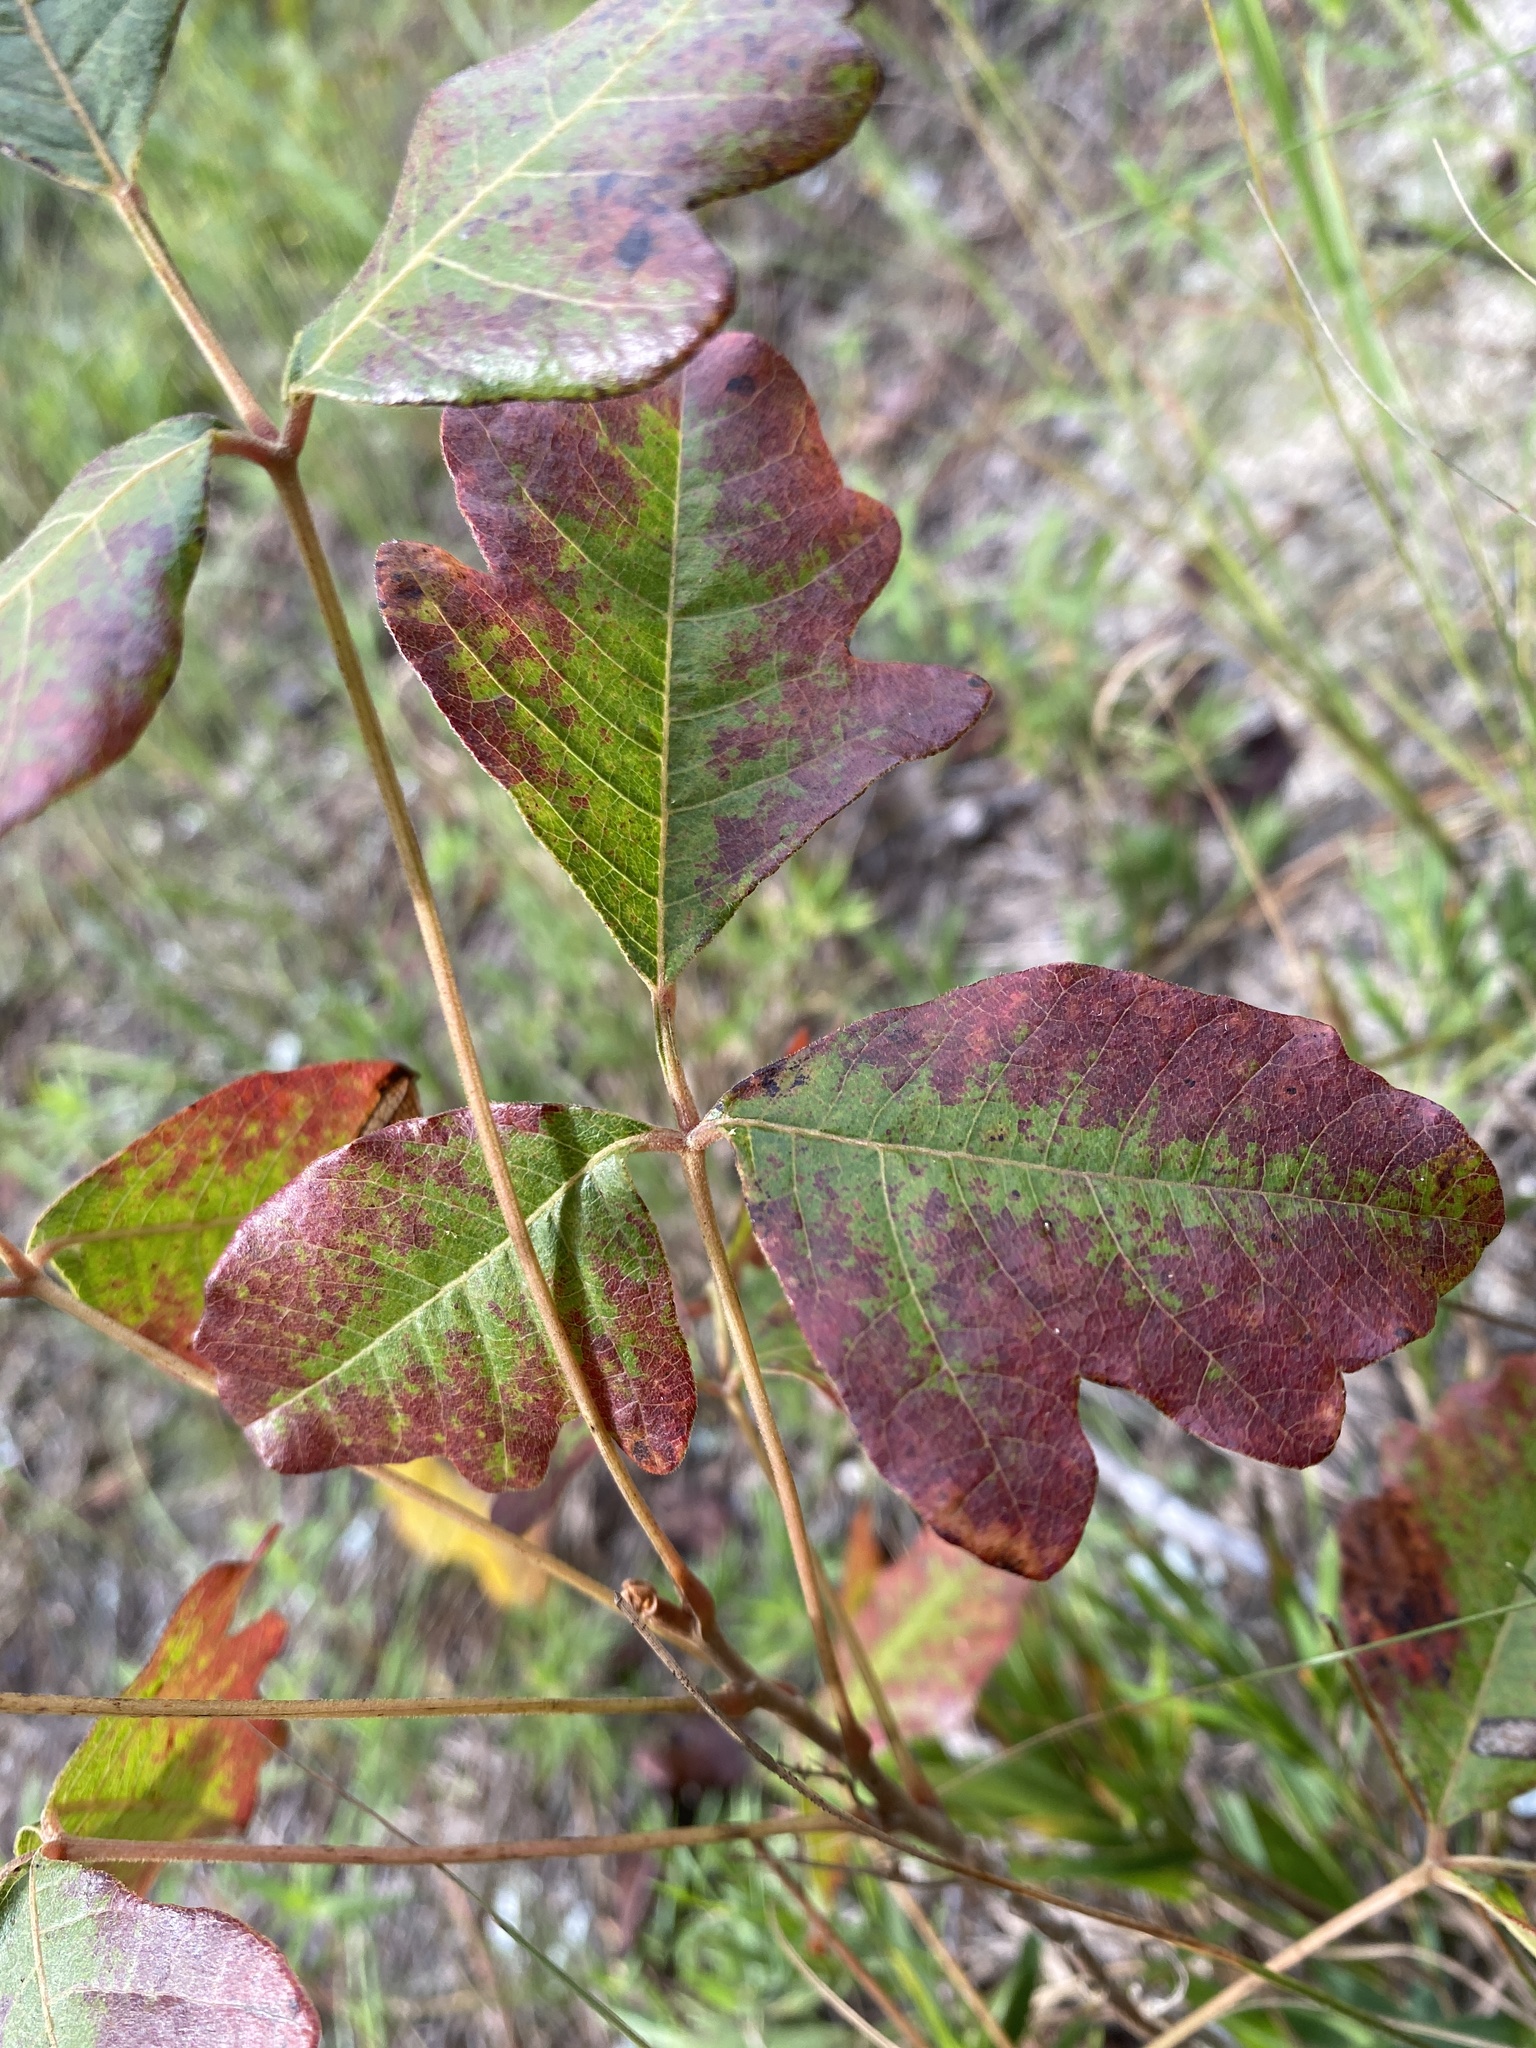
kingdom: Plantae
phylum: Tracheophyta
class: Magnoliopsida
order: Sapindales
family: Anacardiaceae
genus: Toxicodendron
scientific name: Toxicodendron pubescens
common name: Eastern poison-oak
